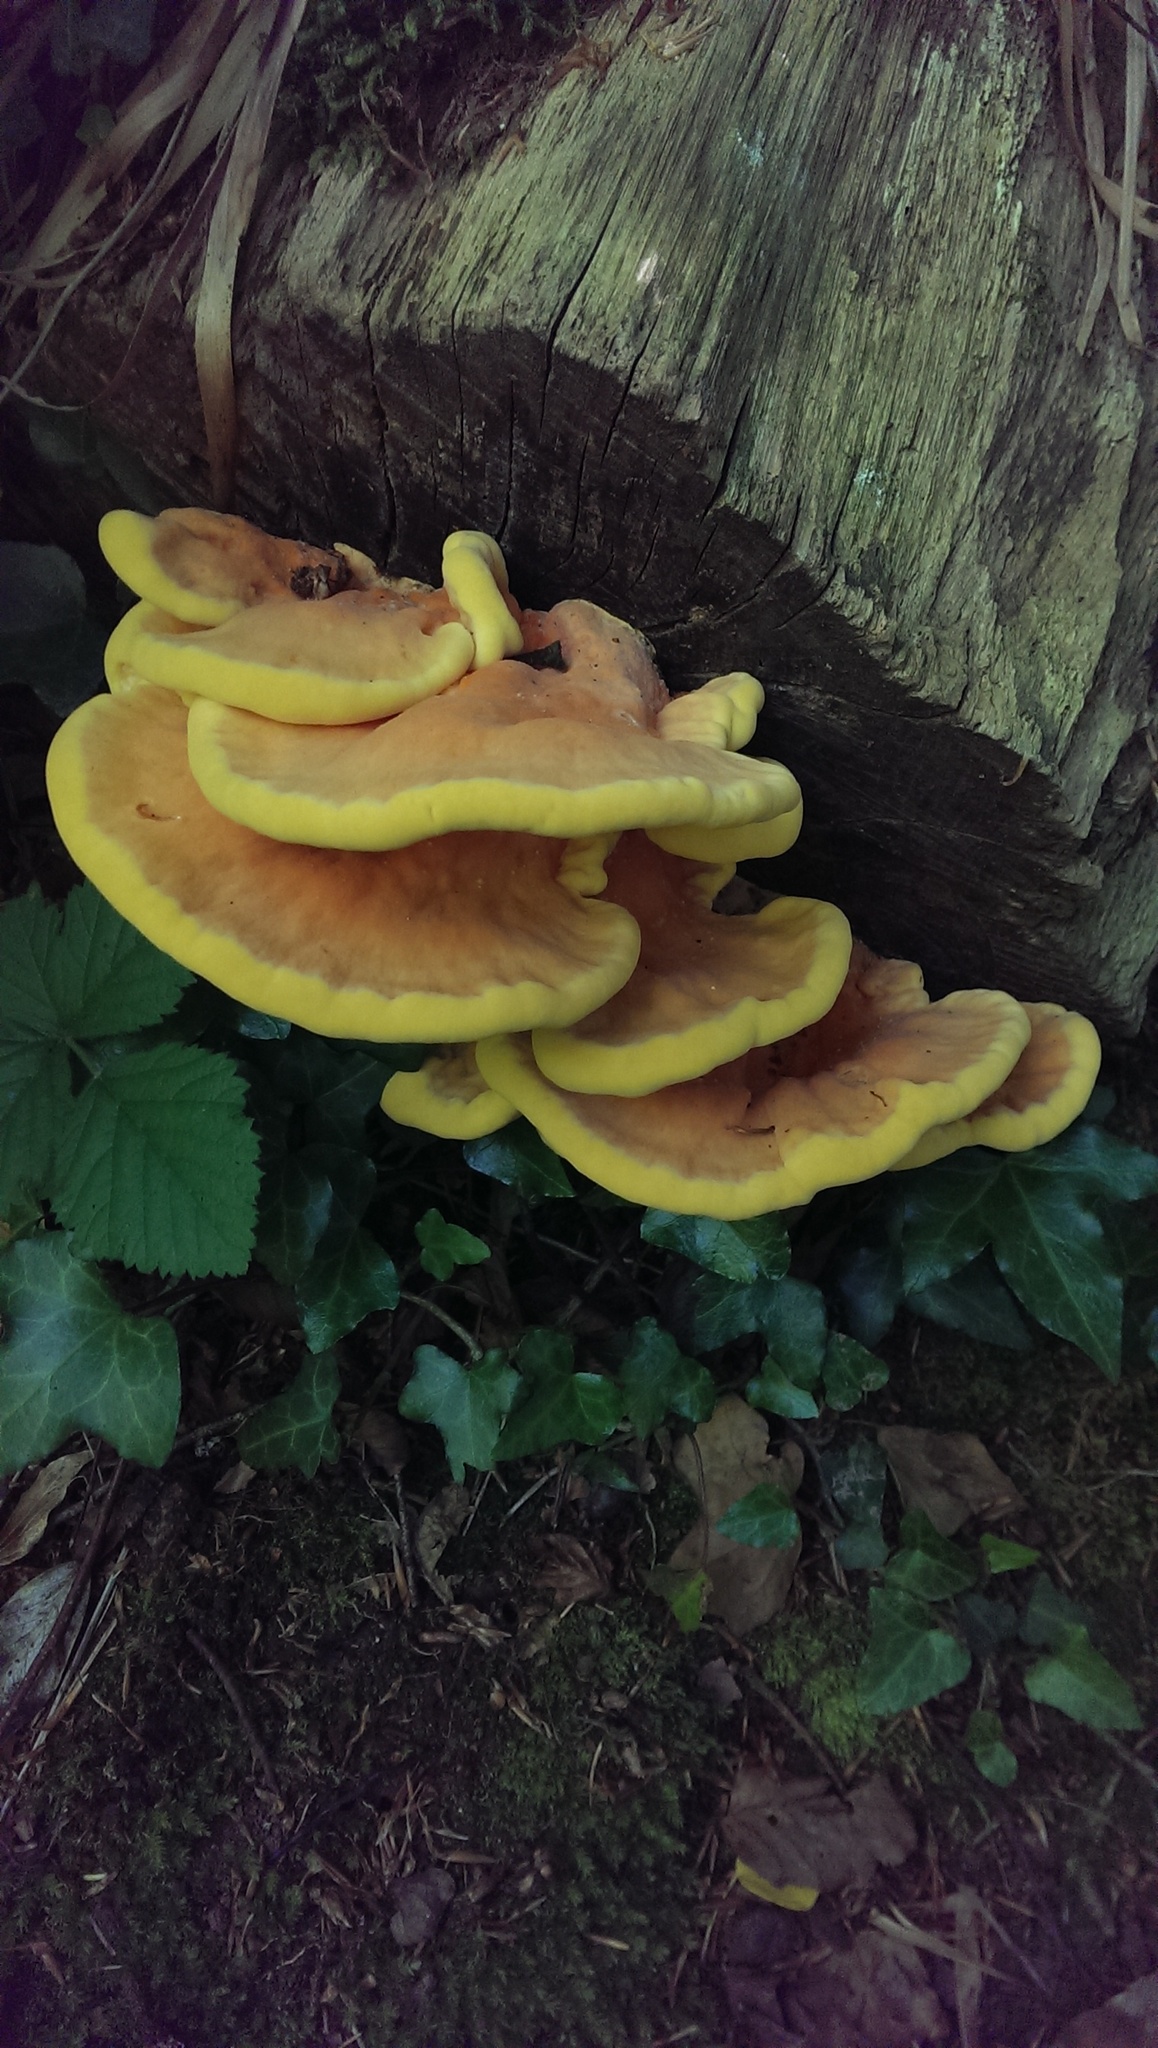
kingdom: Fungi
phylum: Basidiomycota
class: Agaricomycetes
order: Polyporales
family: Laetiporaceae
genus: Laetiporus
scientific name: Laetiporus sulphureus
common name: Chicken of the woods
